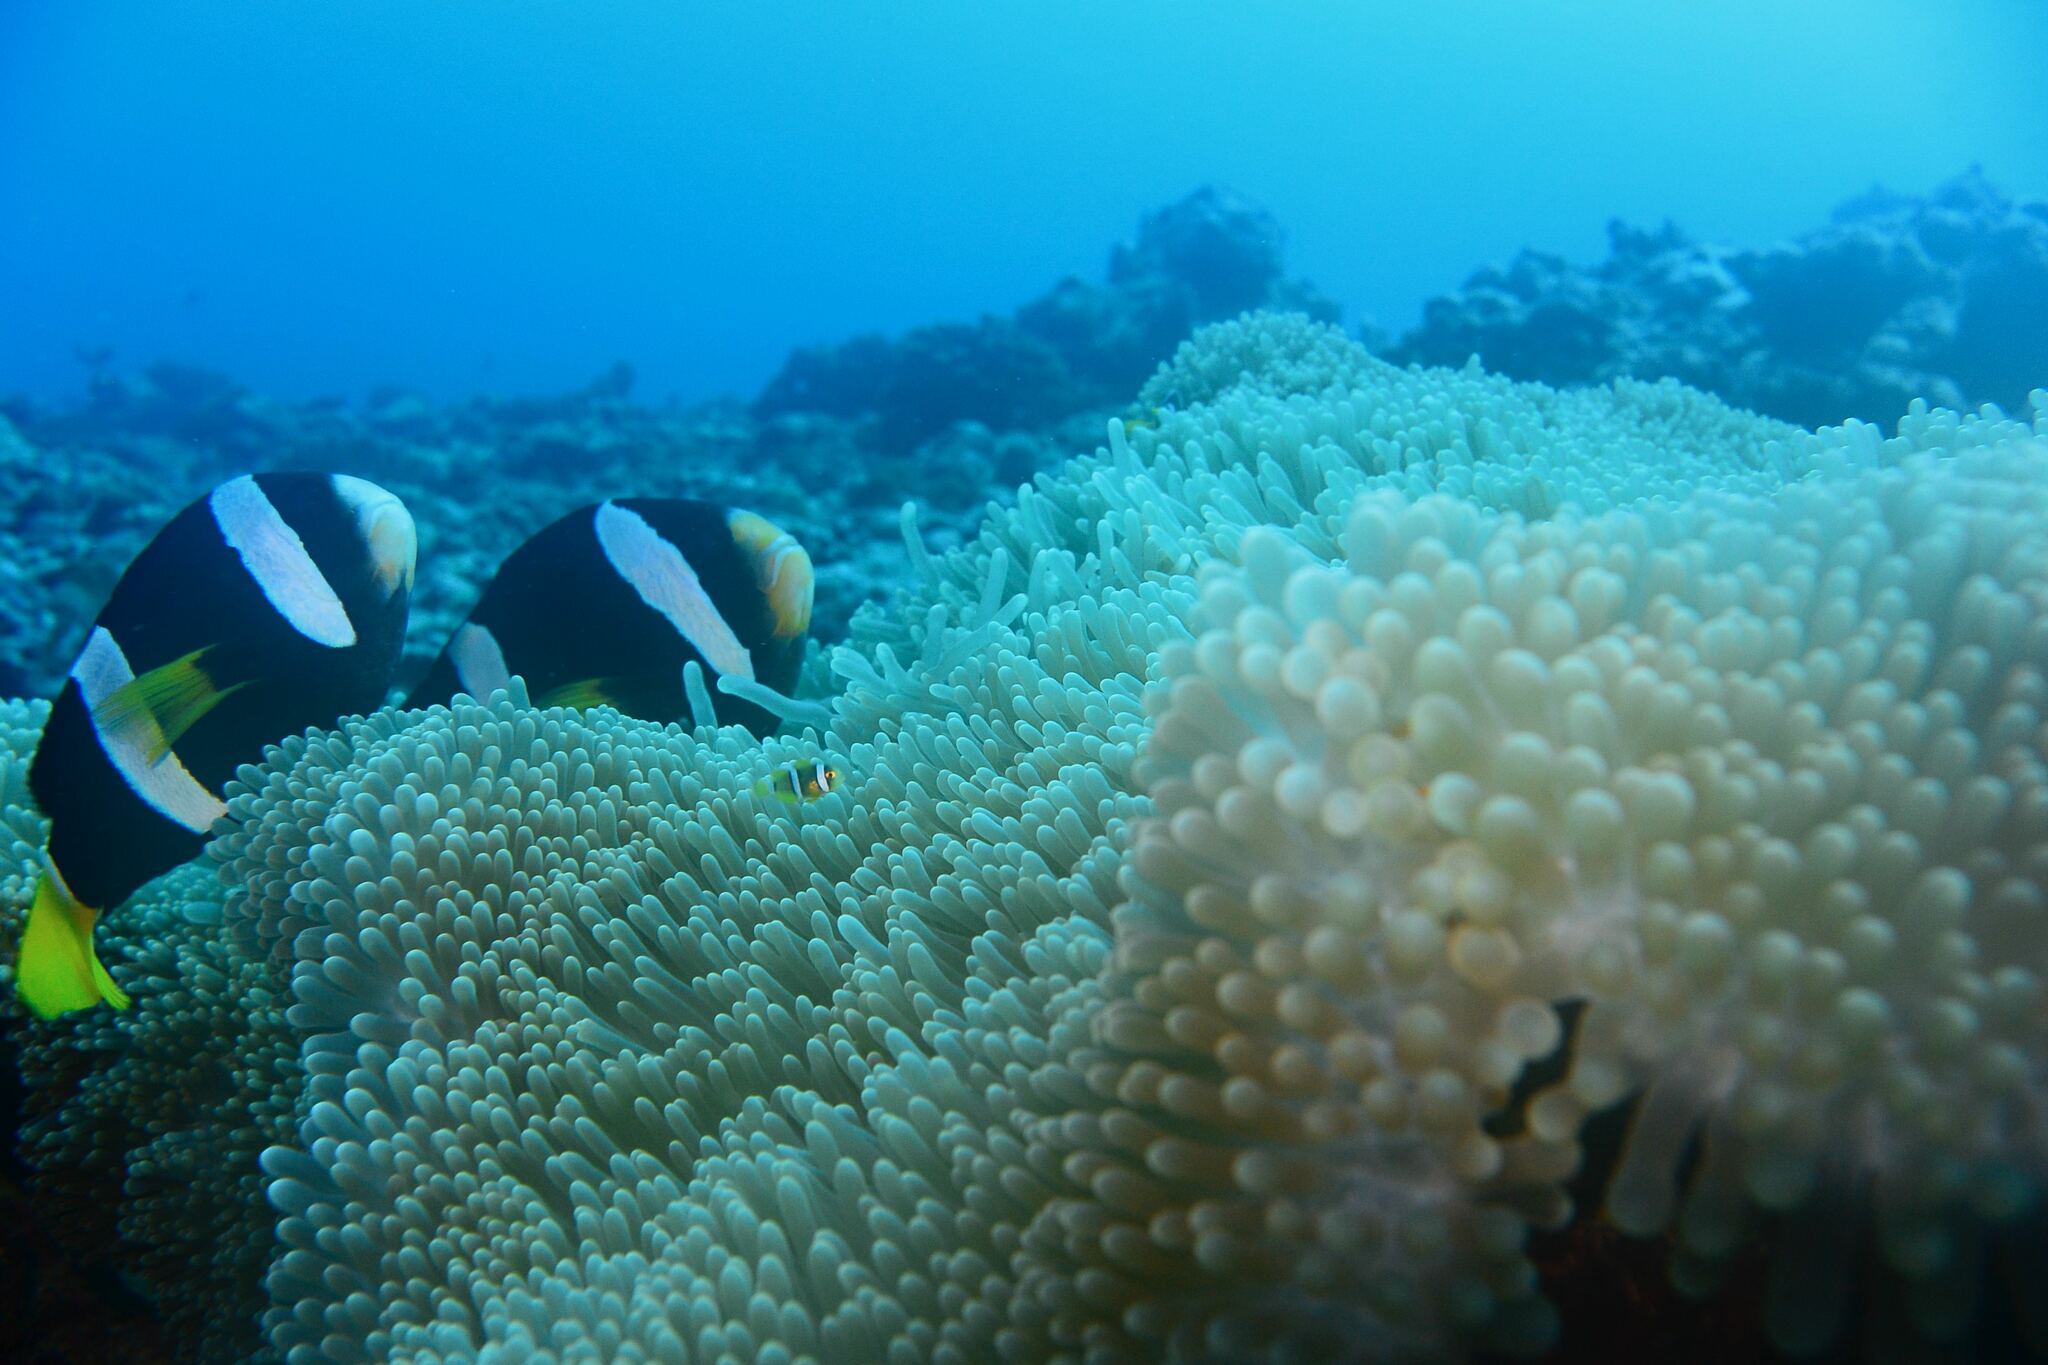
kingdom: Animalia
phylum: Chordata
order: Perciformes
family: Pomacentridae
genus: Amphiprion
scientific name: Amphiprion clarkii
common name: Clark's anemonefish
